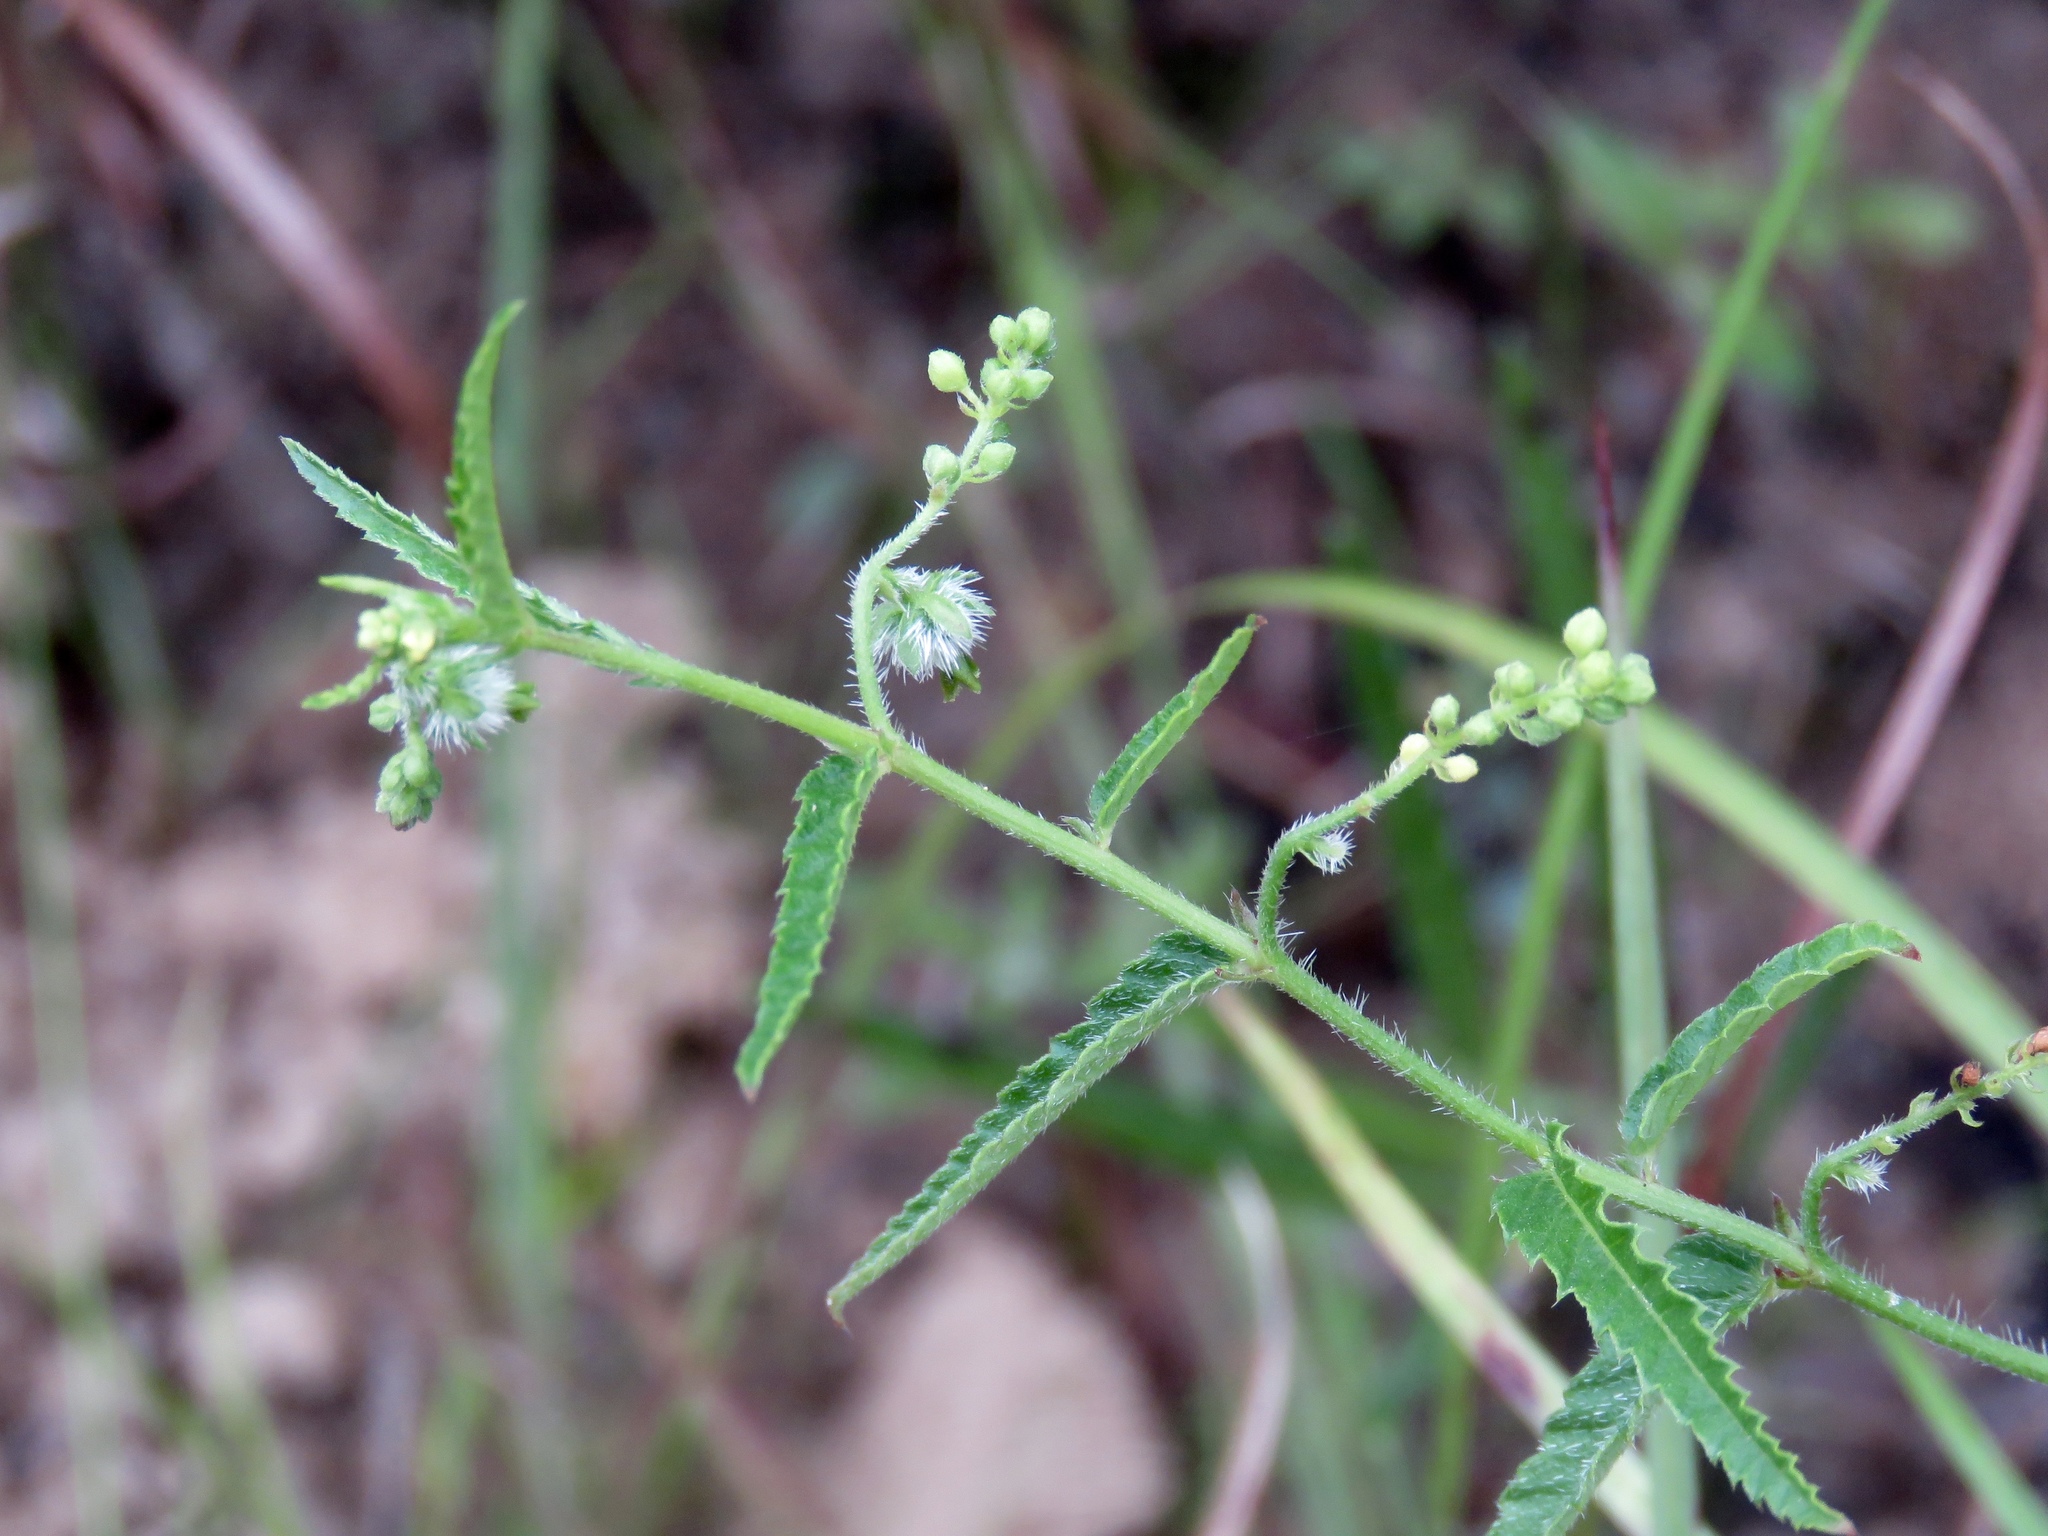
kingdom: Plantae
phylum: Tracheophyta
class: Magnoliopsida
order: Malpighiales
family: Euphorbiaceae
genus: Tragia
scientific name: Tragia urticifolia
